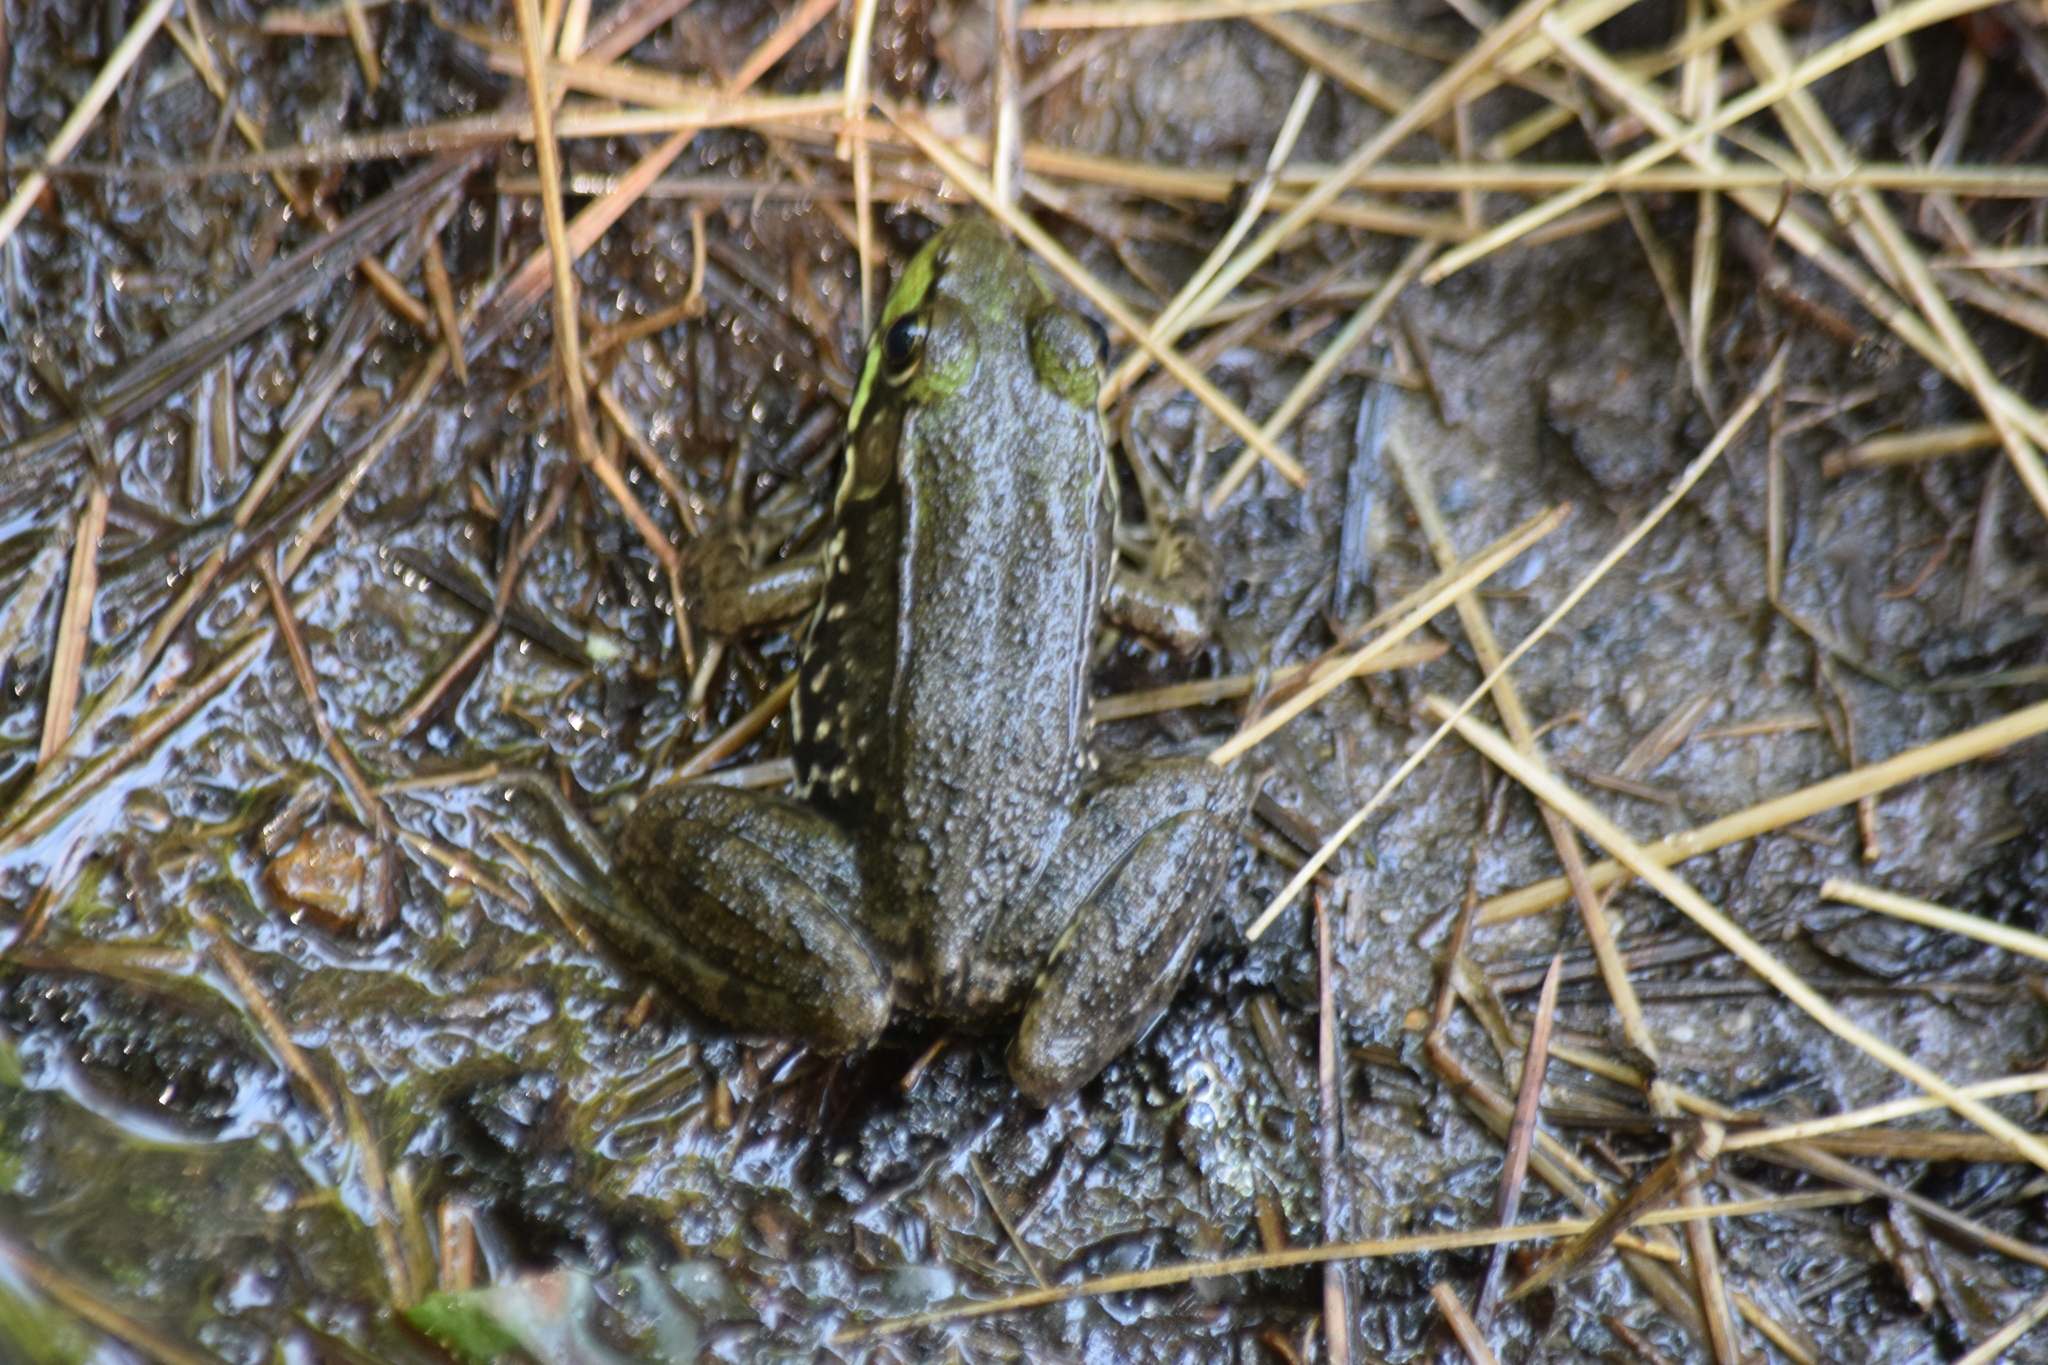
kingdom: Animalia
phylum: Chordata
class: Amphibia
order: Anura
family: Ranidae
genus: Lithobates
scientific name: Lithobates clamitans
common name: Green frog
